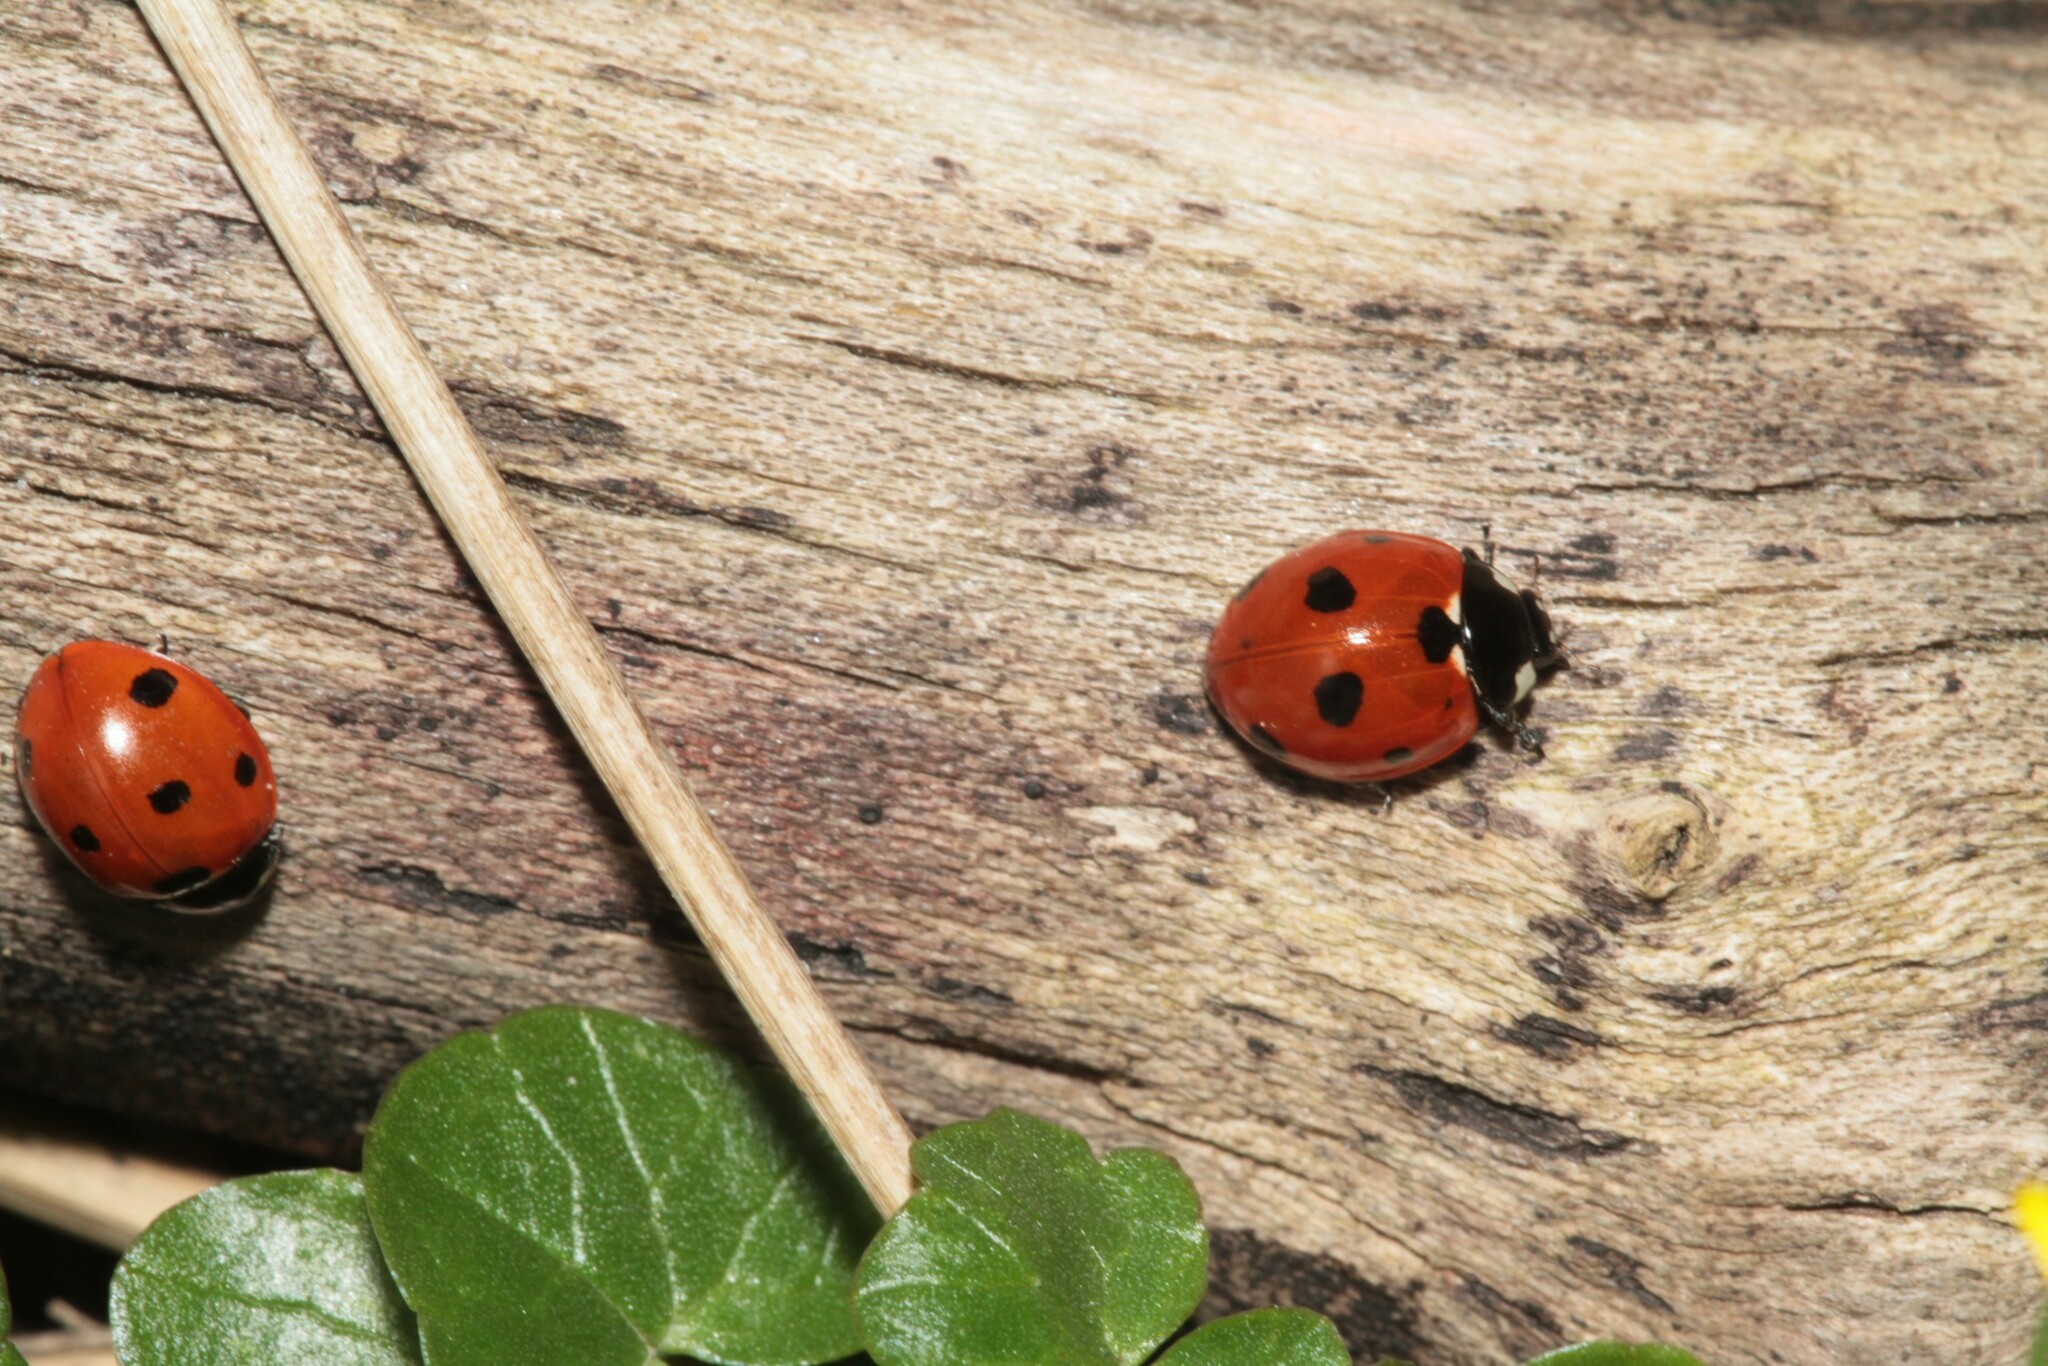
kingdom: Animalia
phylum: Arthropoda
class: Insecta
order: Coleoptera
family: Coccinellidae
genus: Coccinella
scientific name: Coccinella septempunctata
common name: Sevenspotted lady beetle
